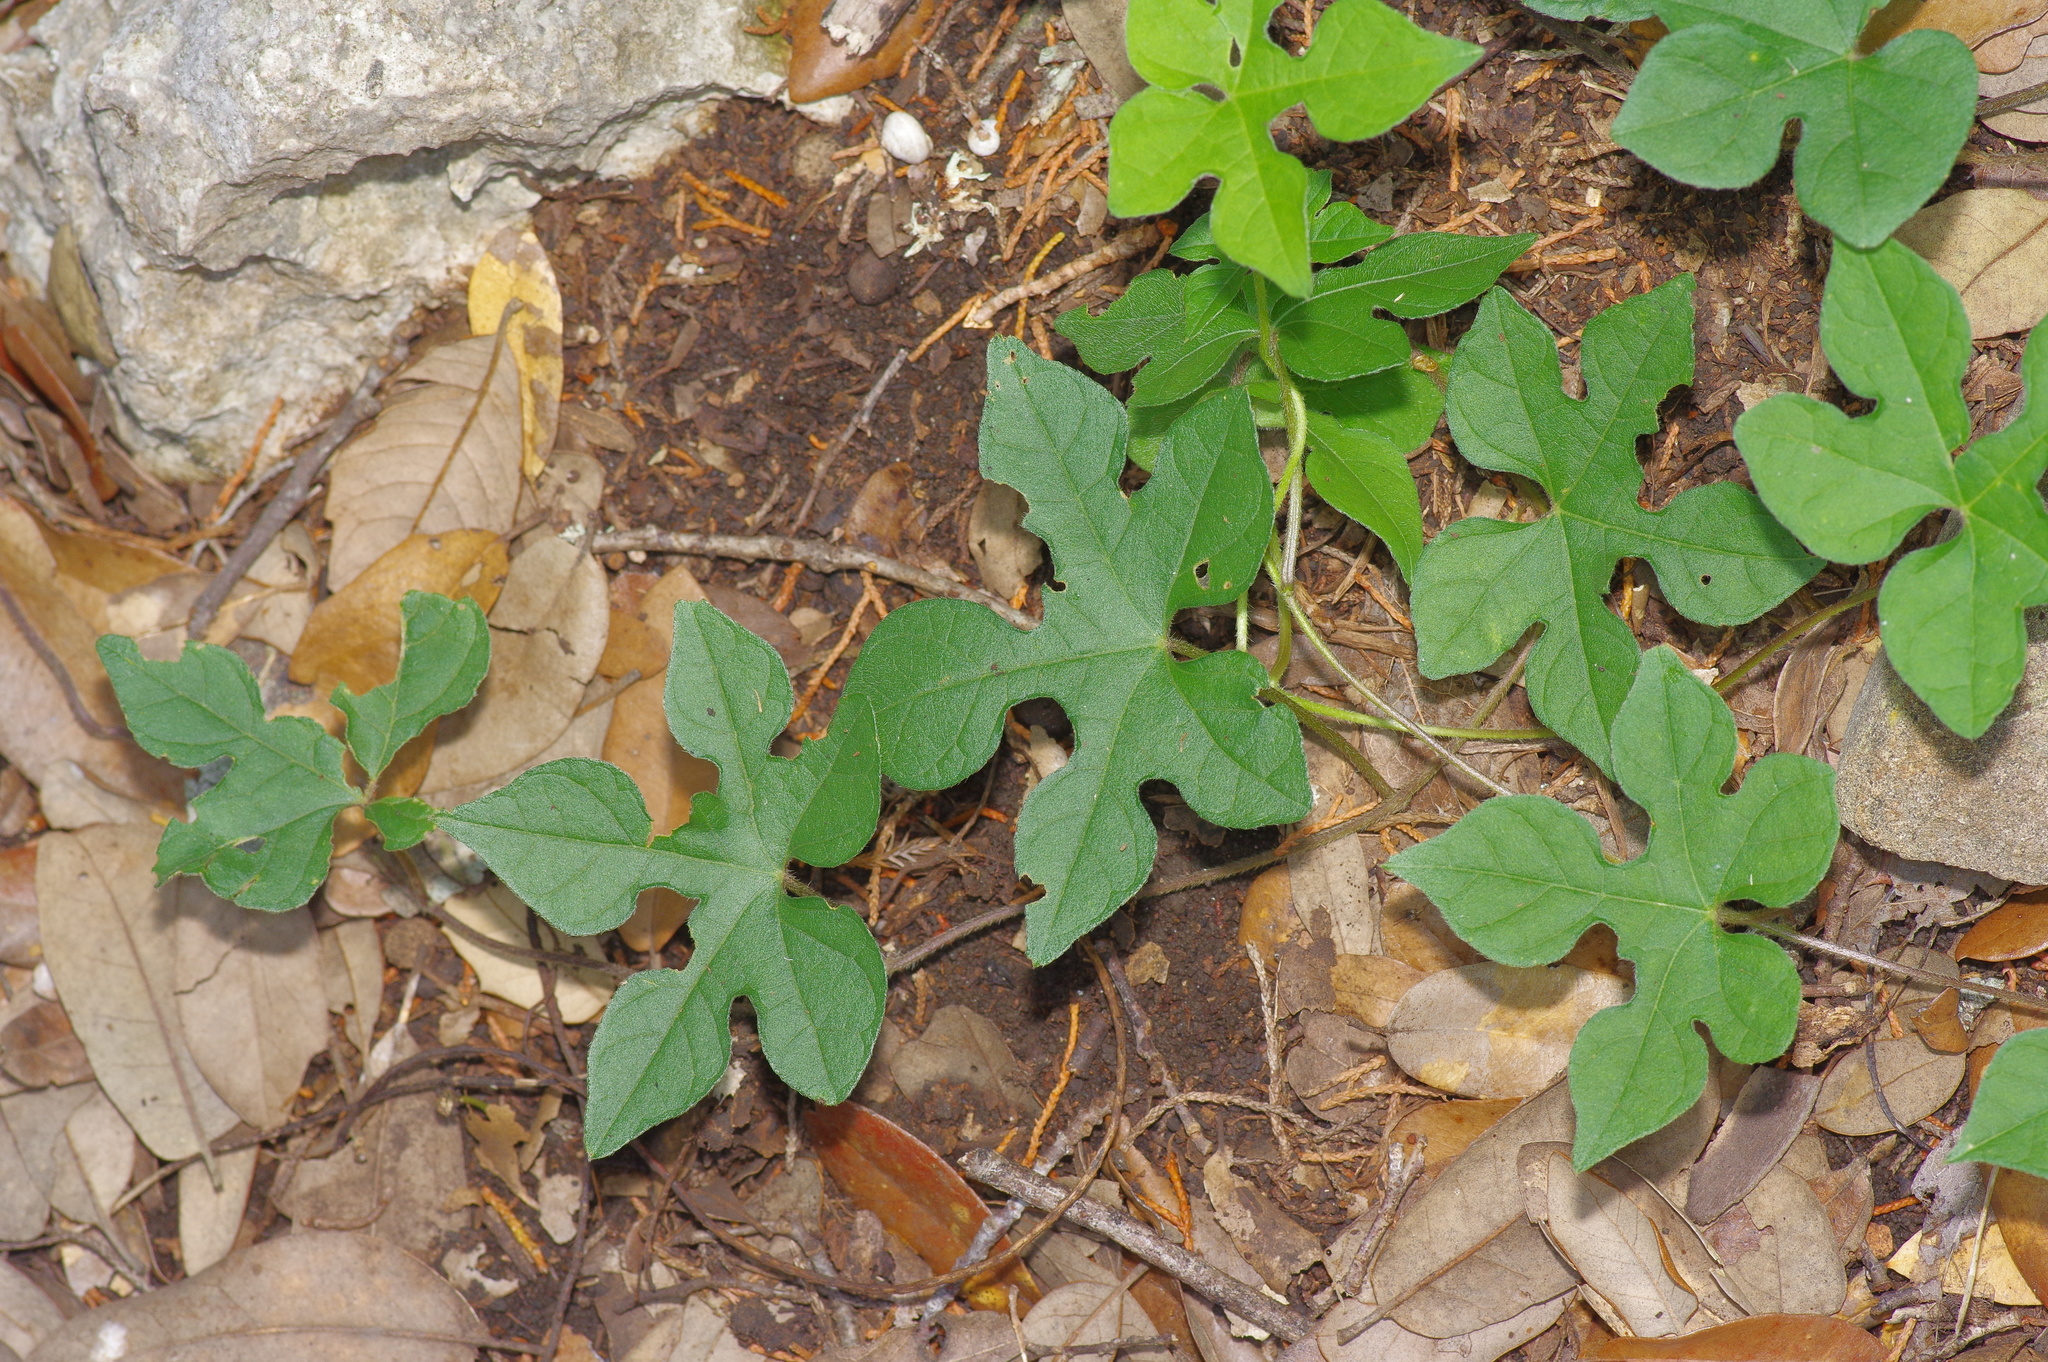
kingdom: Plantae
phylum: Tracheophyta
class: Magnoliopsida
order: Solanales
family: Convolvulaceae
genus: Ipomoea
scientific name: Ipomoea lindheimeri
